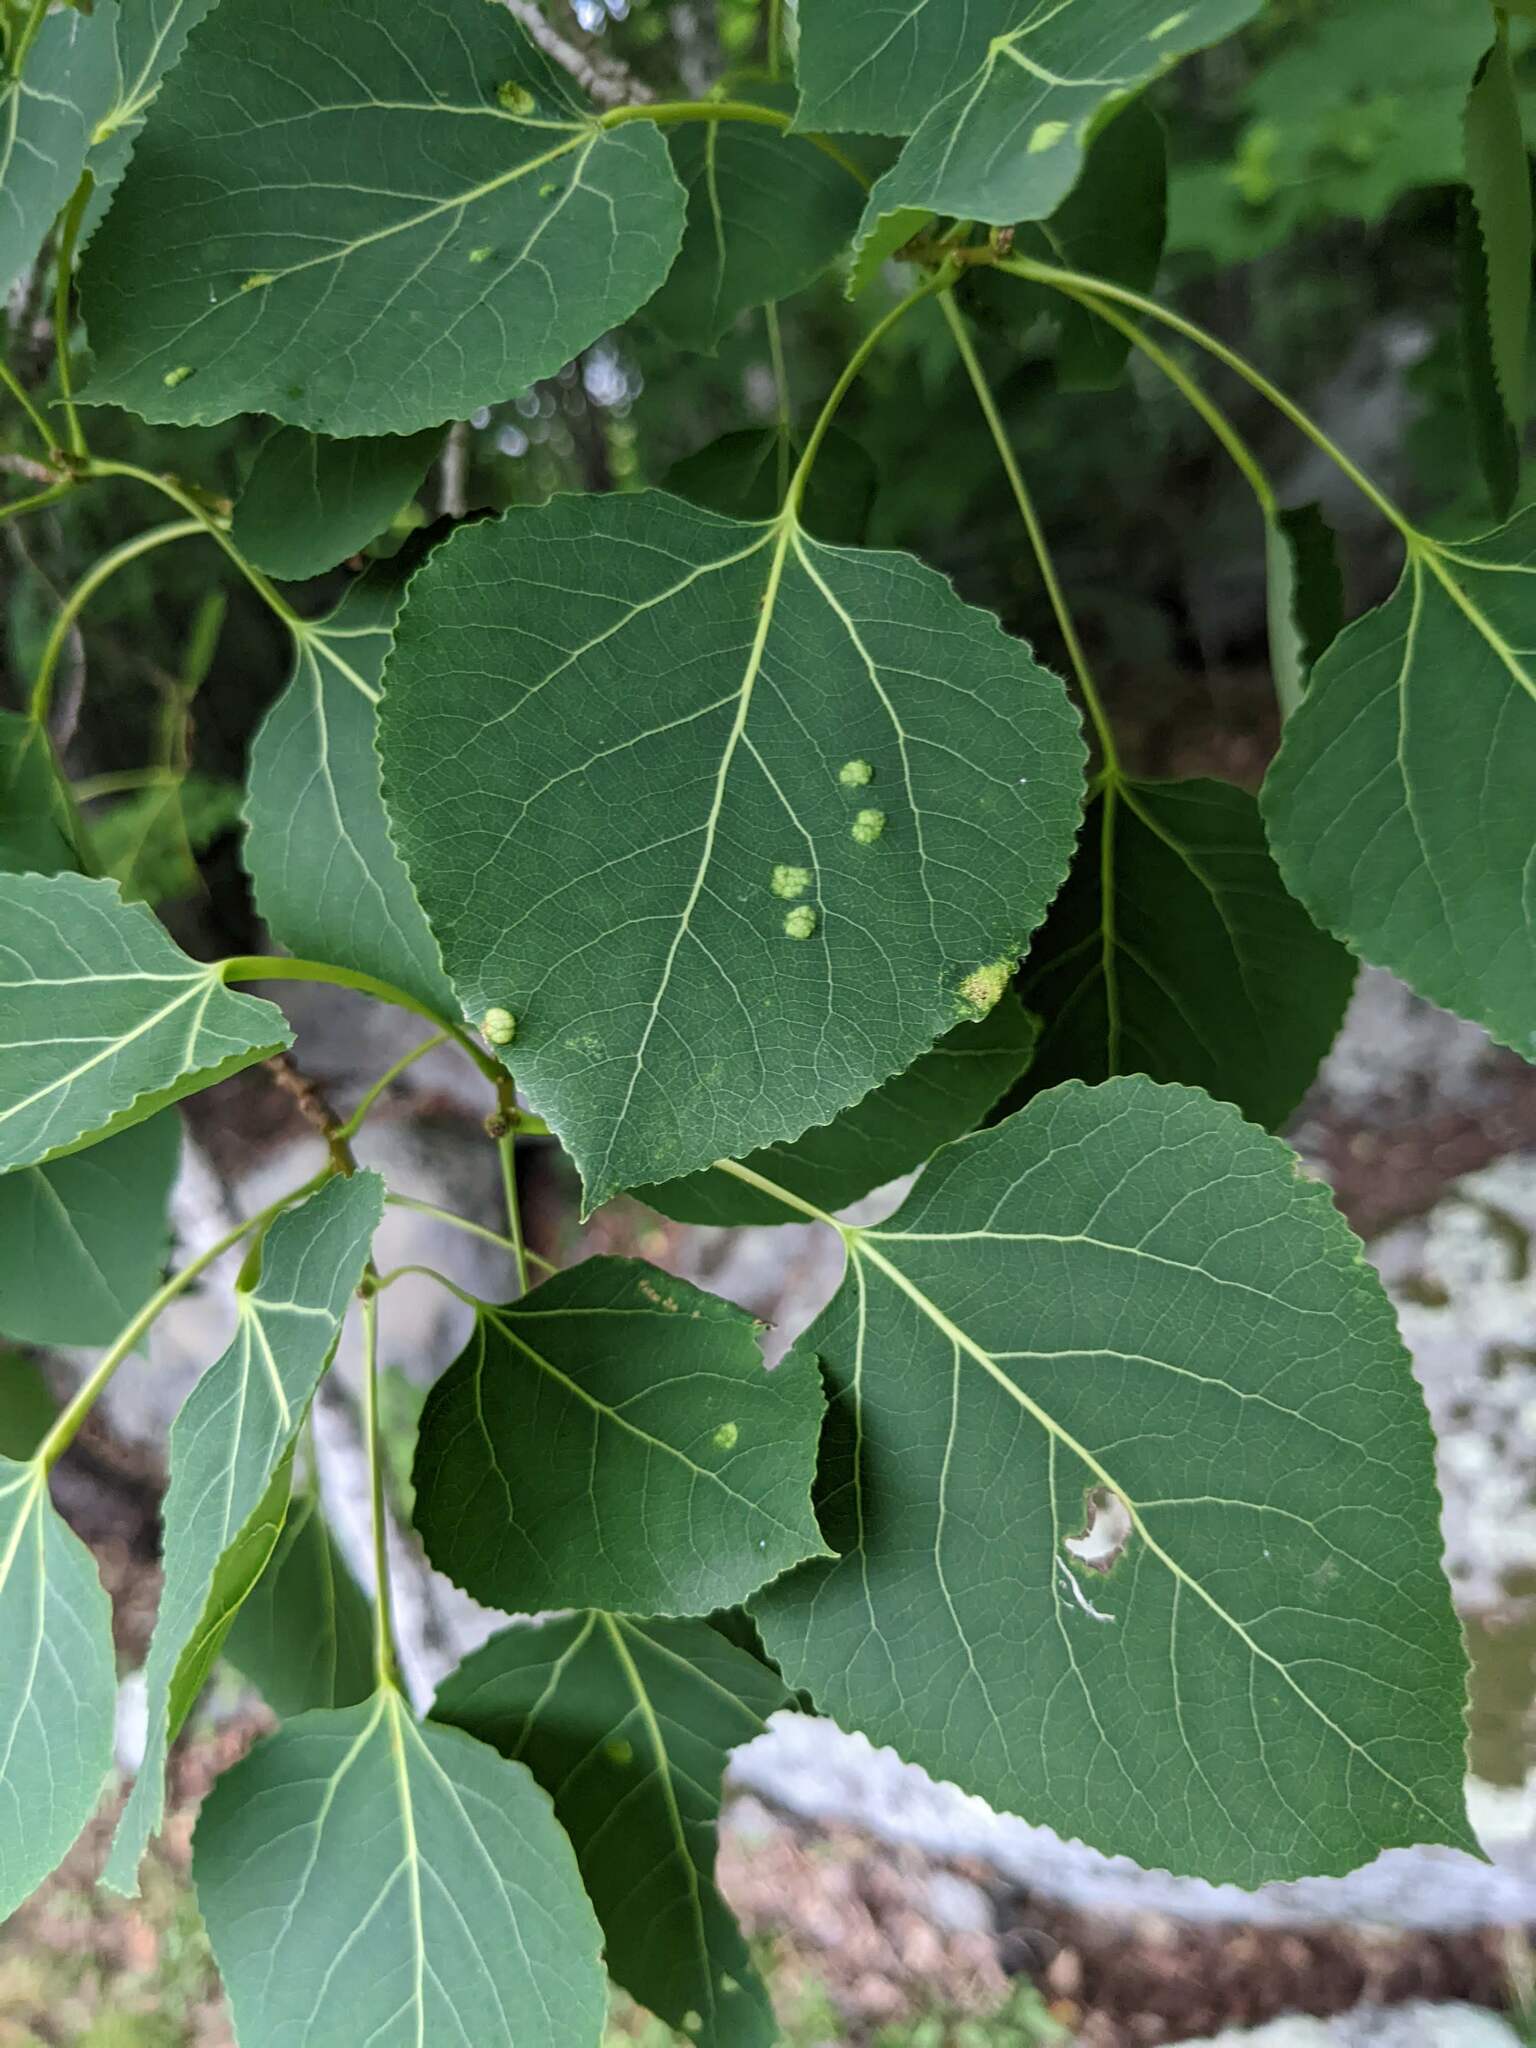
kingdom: Animalia
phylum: Arthropoda
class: Arachnida
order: Trombidiformes
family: Eriophyidae
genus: Phyllocoptes
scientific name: Phyllocoptes
